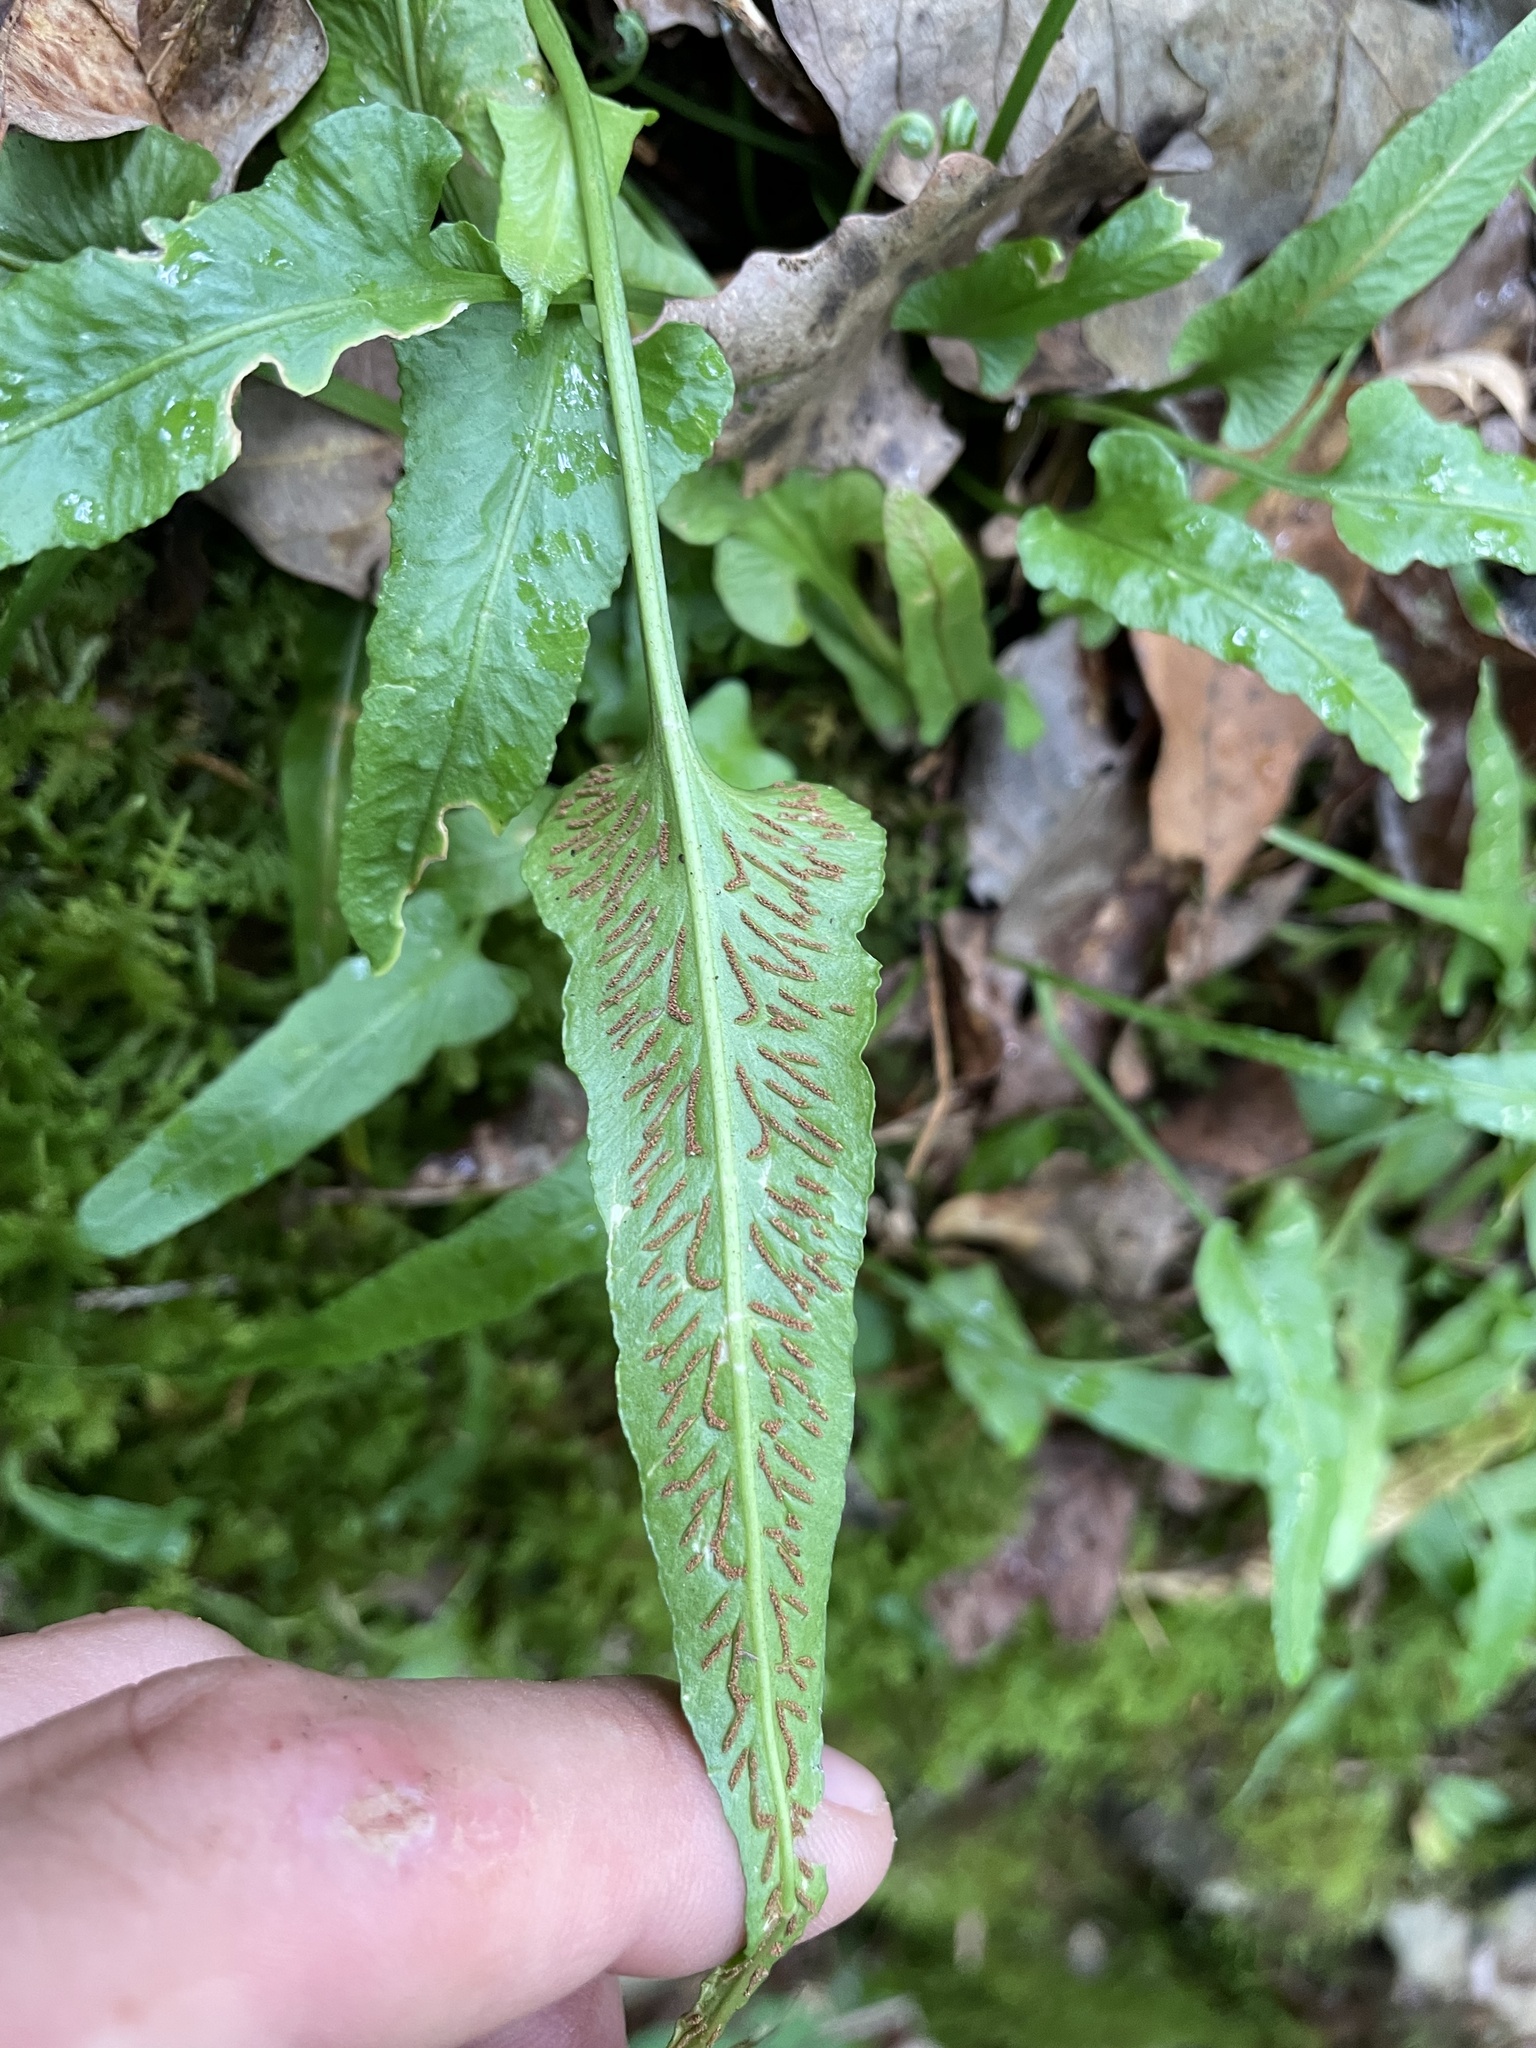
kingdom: Plantae
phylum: Tracheophyta
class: Polypodiopsida
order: Polypodiales
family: Aspleniaceae
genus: Asplenium
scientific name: Asplenium rhizophyllum
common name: Walking fern
